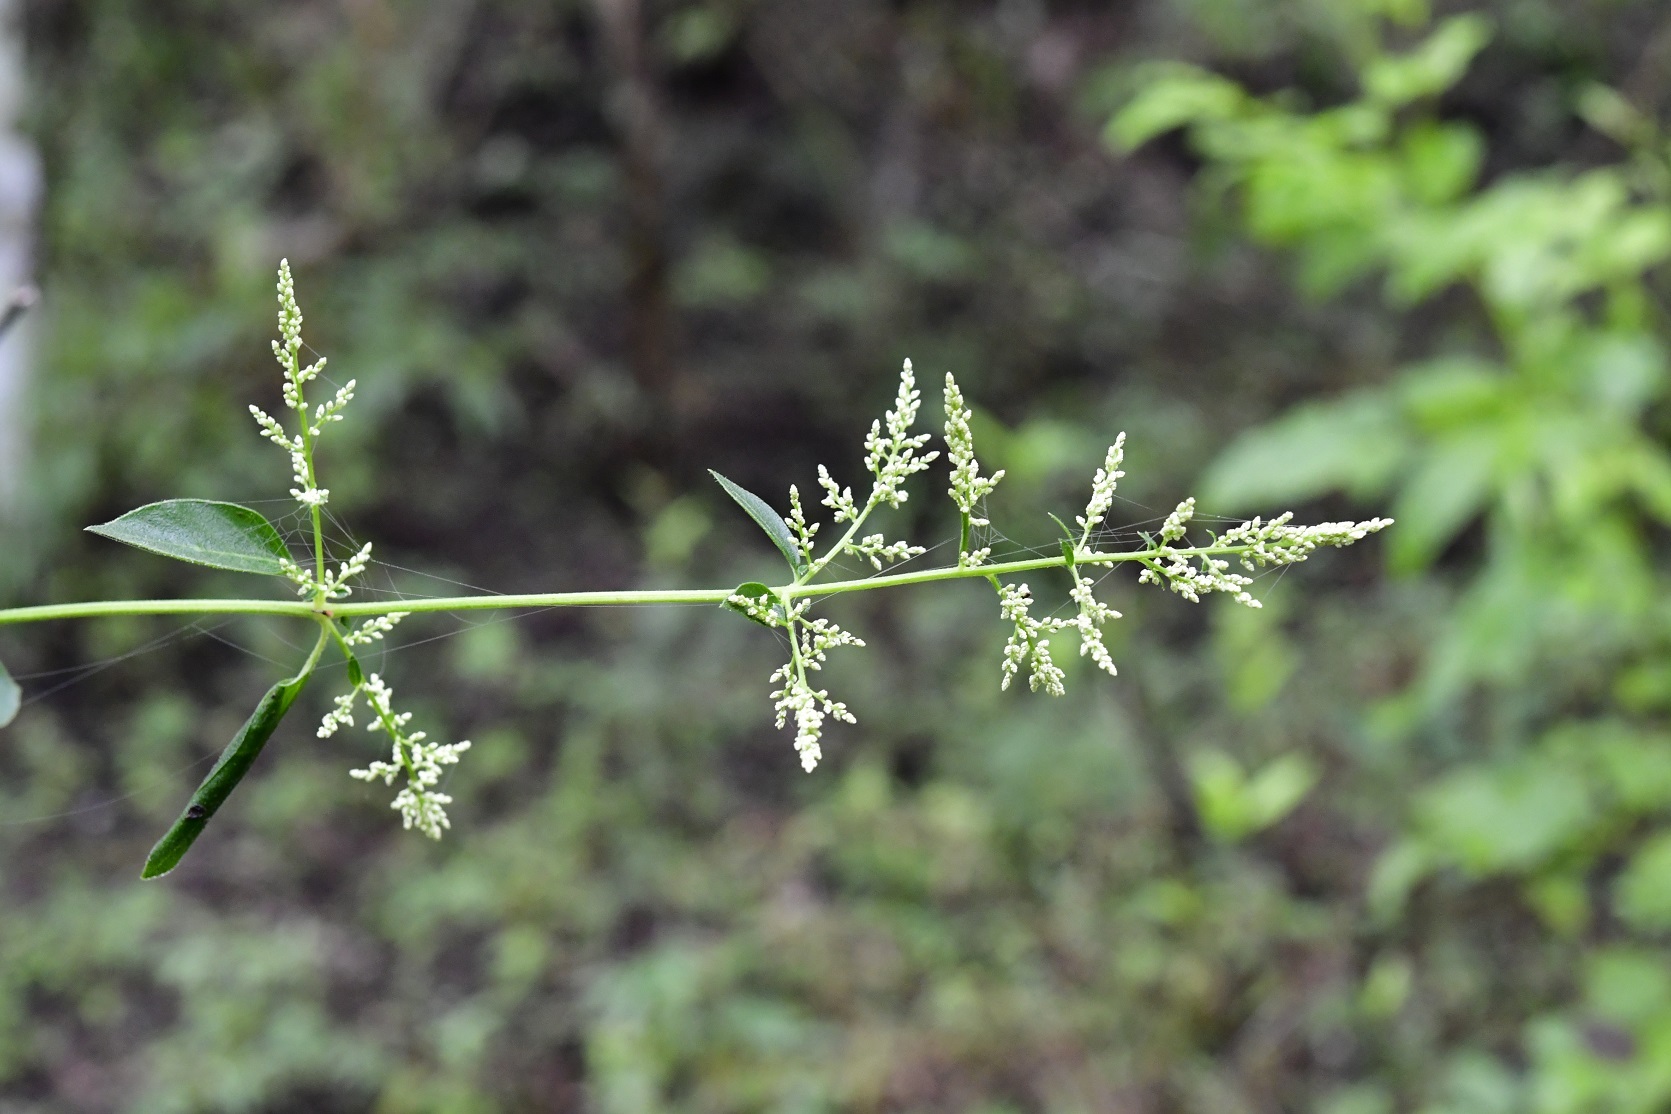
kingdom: Plantae
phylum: Tracheophyta
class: Magnoliopsida
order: Caryophyllales
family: Amaranthaceae
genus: Iresine
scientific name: Iresine rhizomatosa
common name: Juda's-bush
